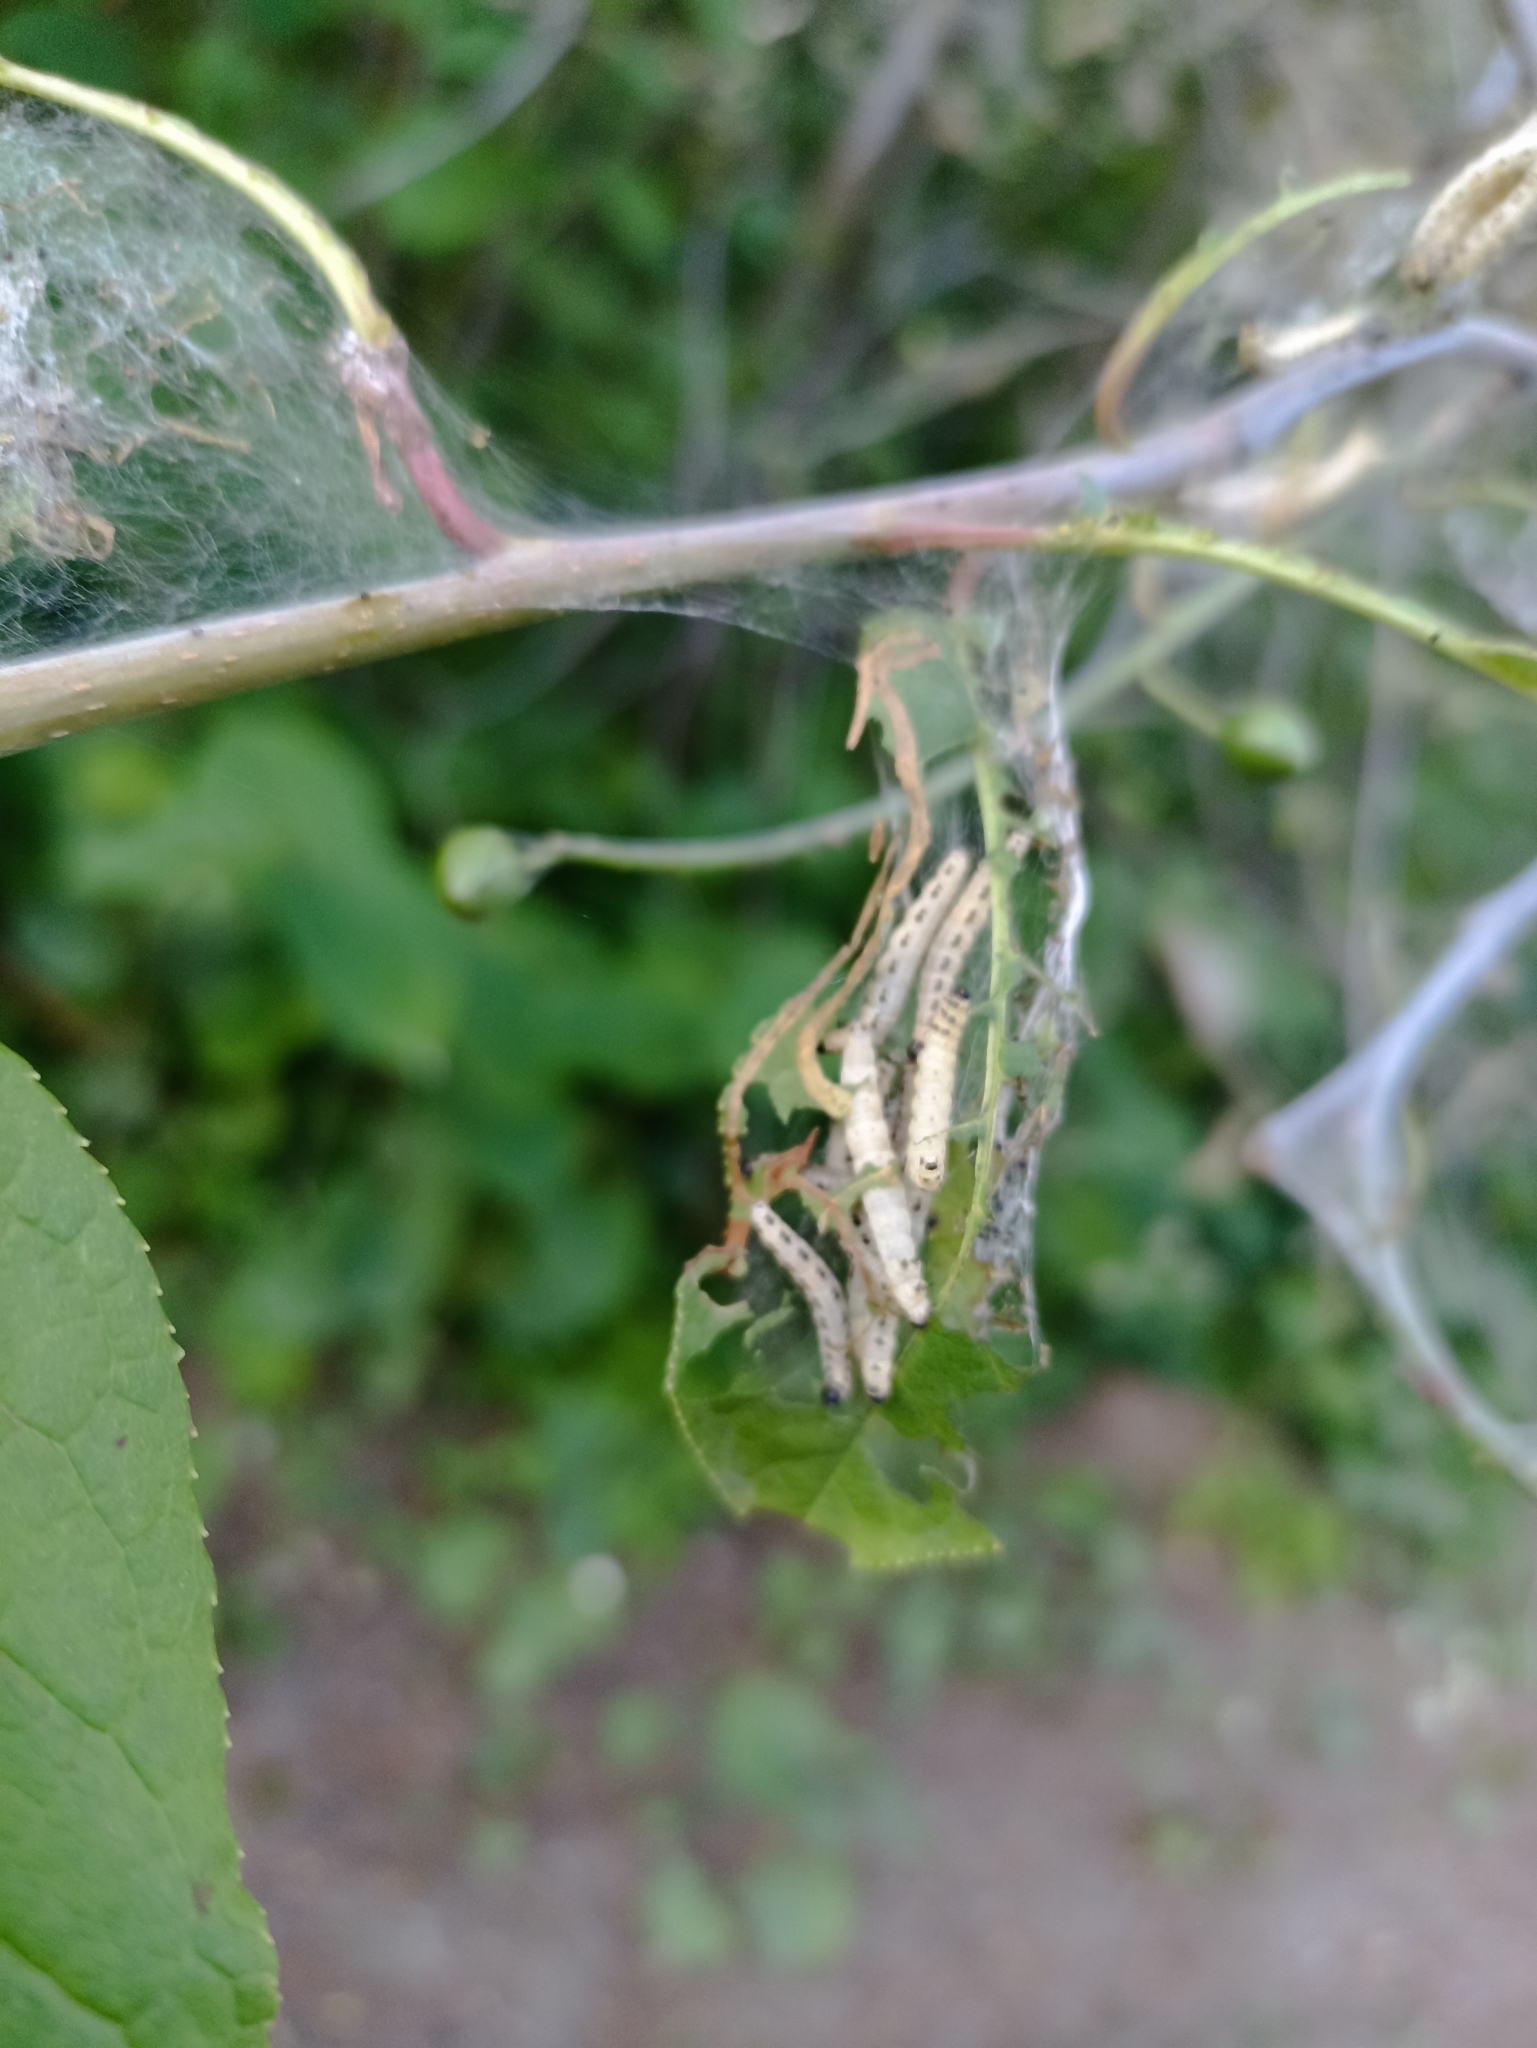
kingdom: Animalia
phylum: Arthropoda
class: Insecta
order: Lepidoptera
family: Yponomeutidae
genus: Yponomeuta
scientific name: Yponomeuta evonymella
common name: Bird-cherry ermine
